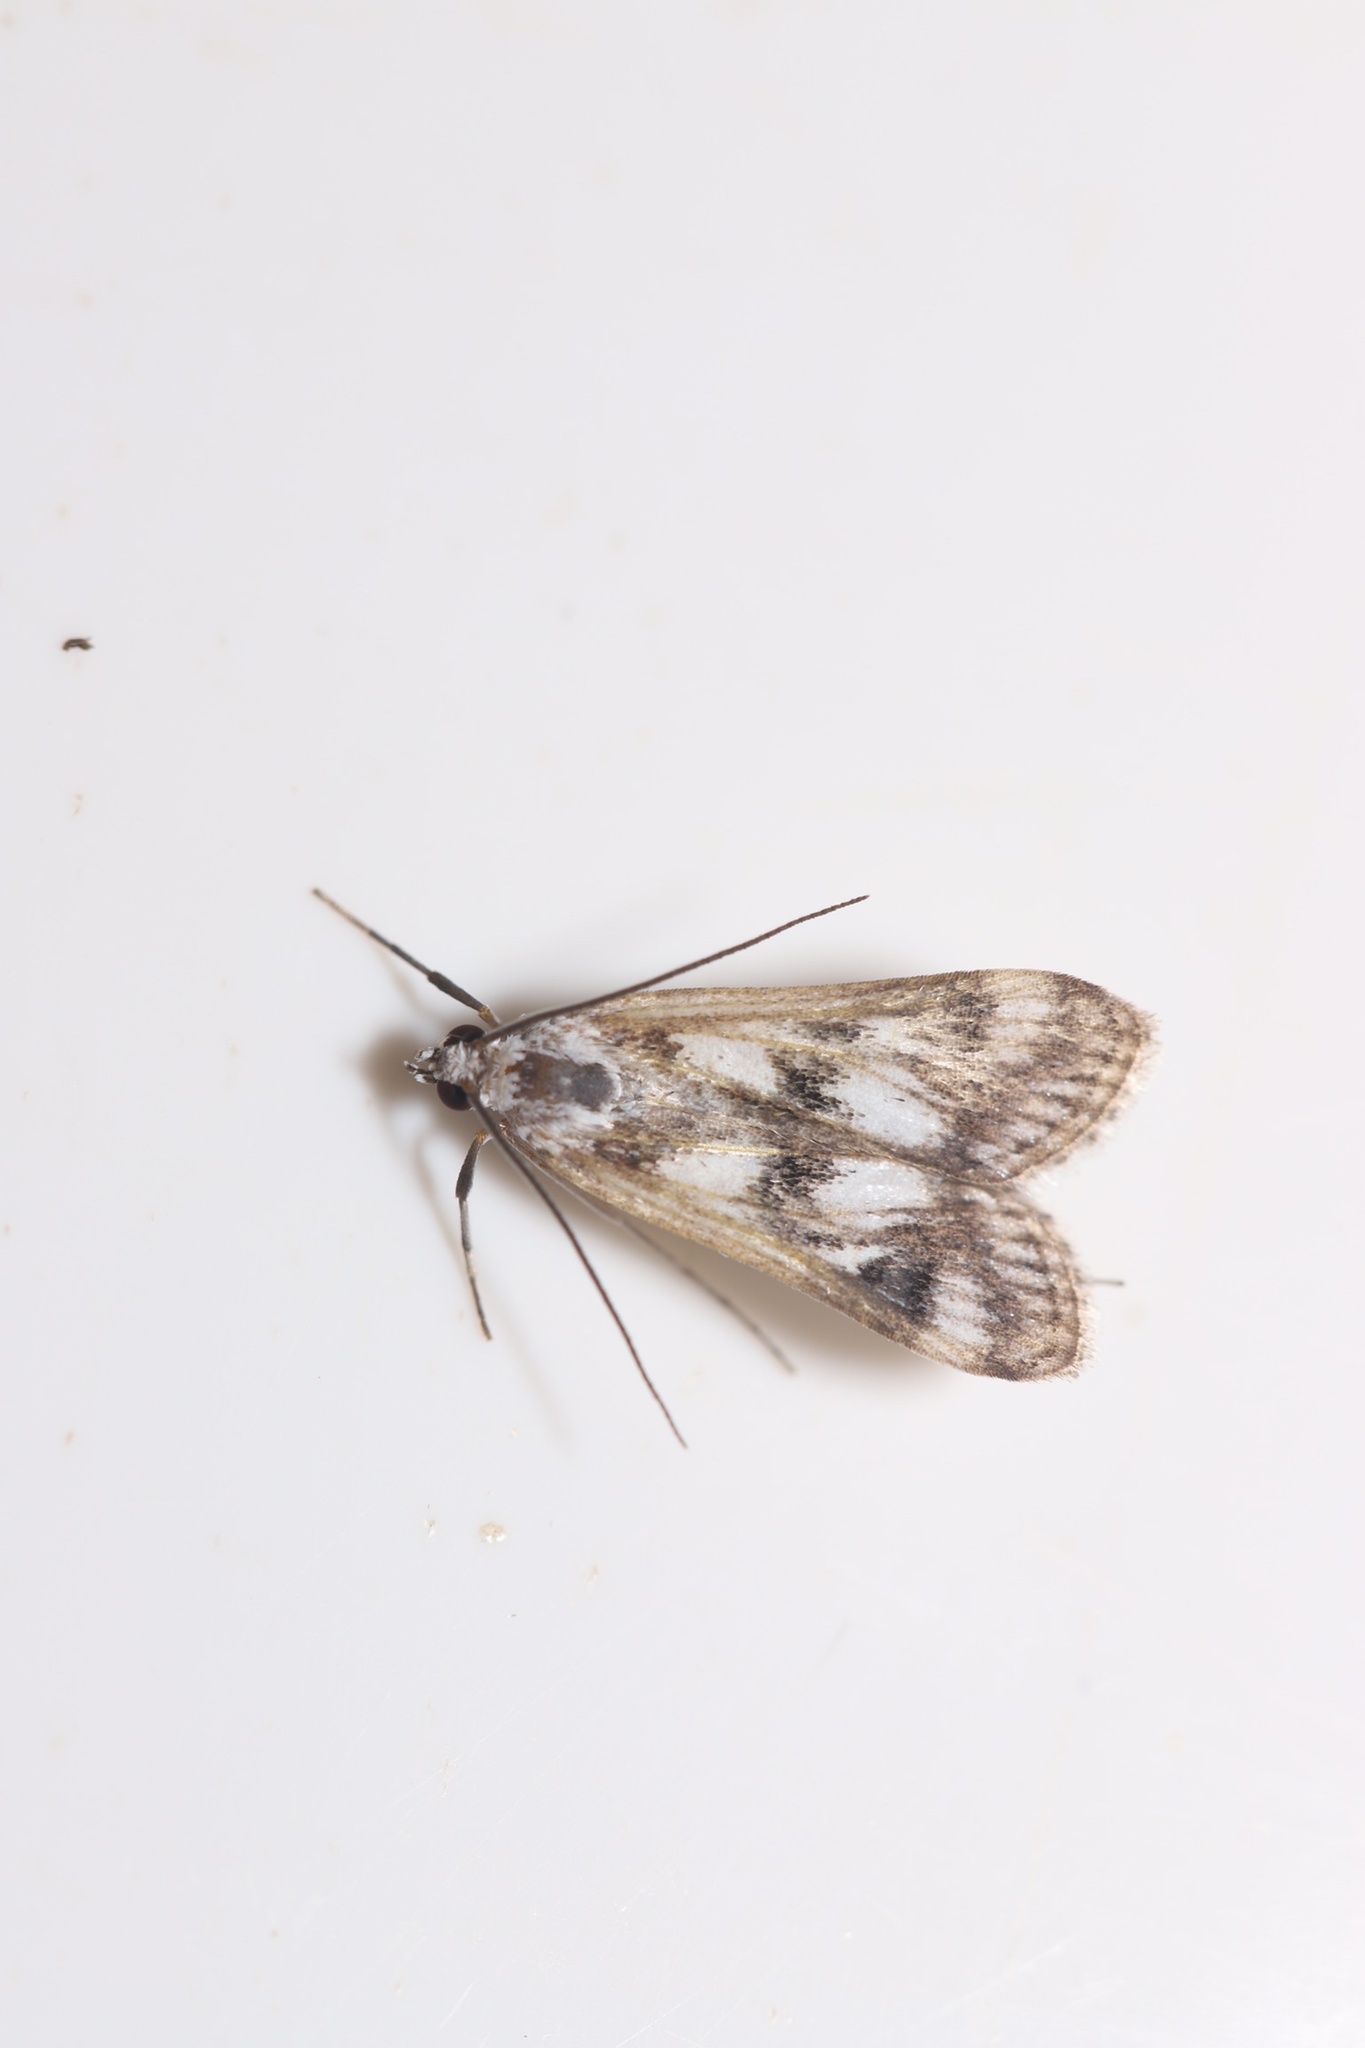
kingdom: Animalia
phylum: Arthropoda
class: Insecta
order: Lepidoptera
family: Crambidae
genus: Parapoynx
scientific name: Parapoynx maculalis
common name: Polymorphic pondweed moth
